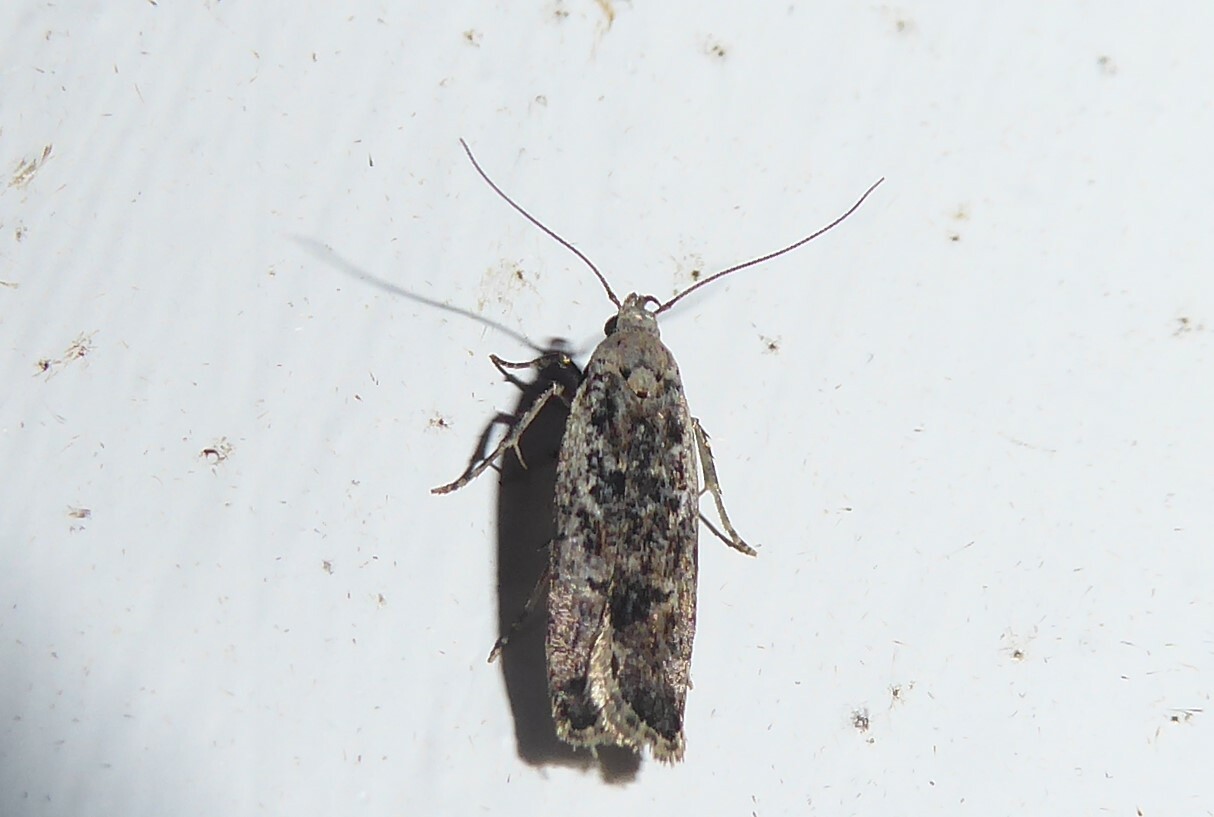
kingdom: Animalia
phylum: Arthropoda
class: Insecta
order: Lepidoptera
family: Gelechiidae
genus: Anisoplaca
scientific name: Anisoplaca achyrota
